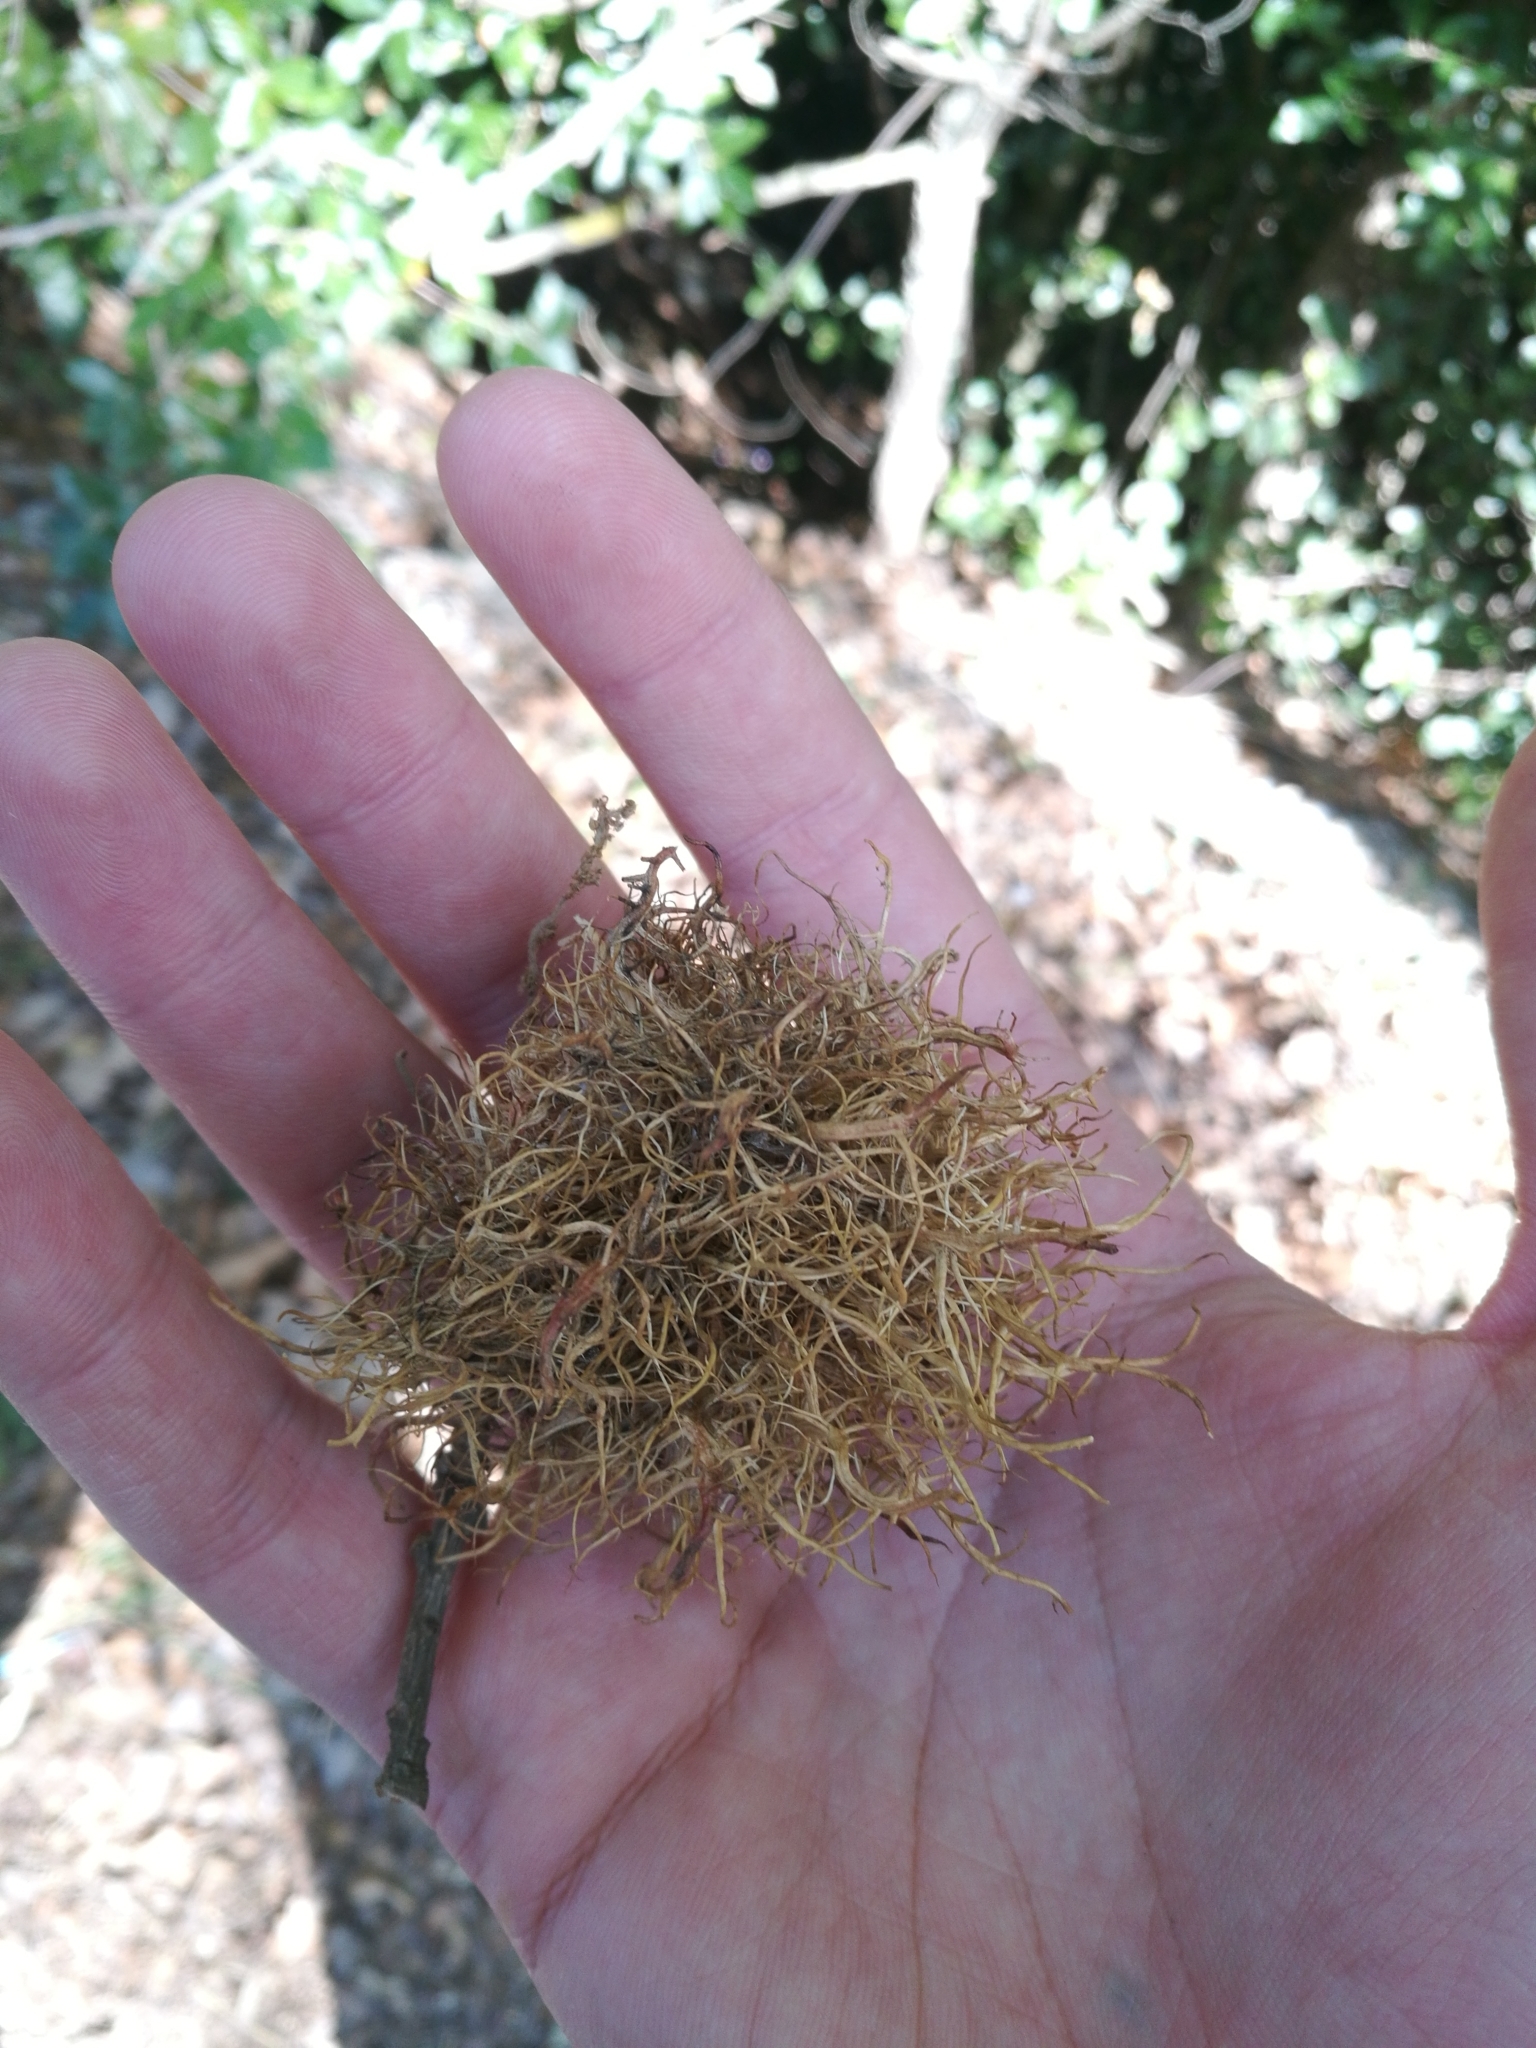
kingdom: Animalia
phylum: Arthropoda
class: Insecta
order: Hymenoptera
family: Cynipidae
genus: Andricus
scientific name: Andricus caputmedusae
